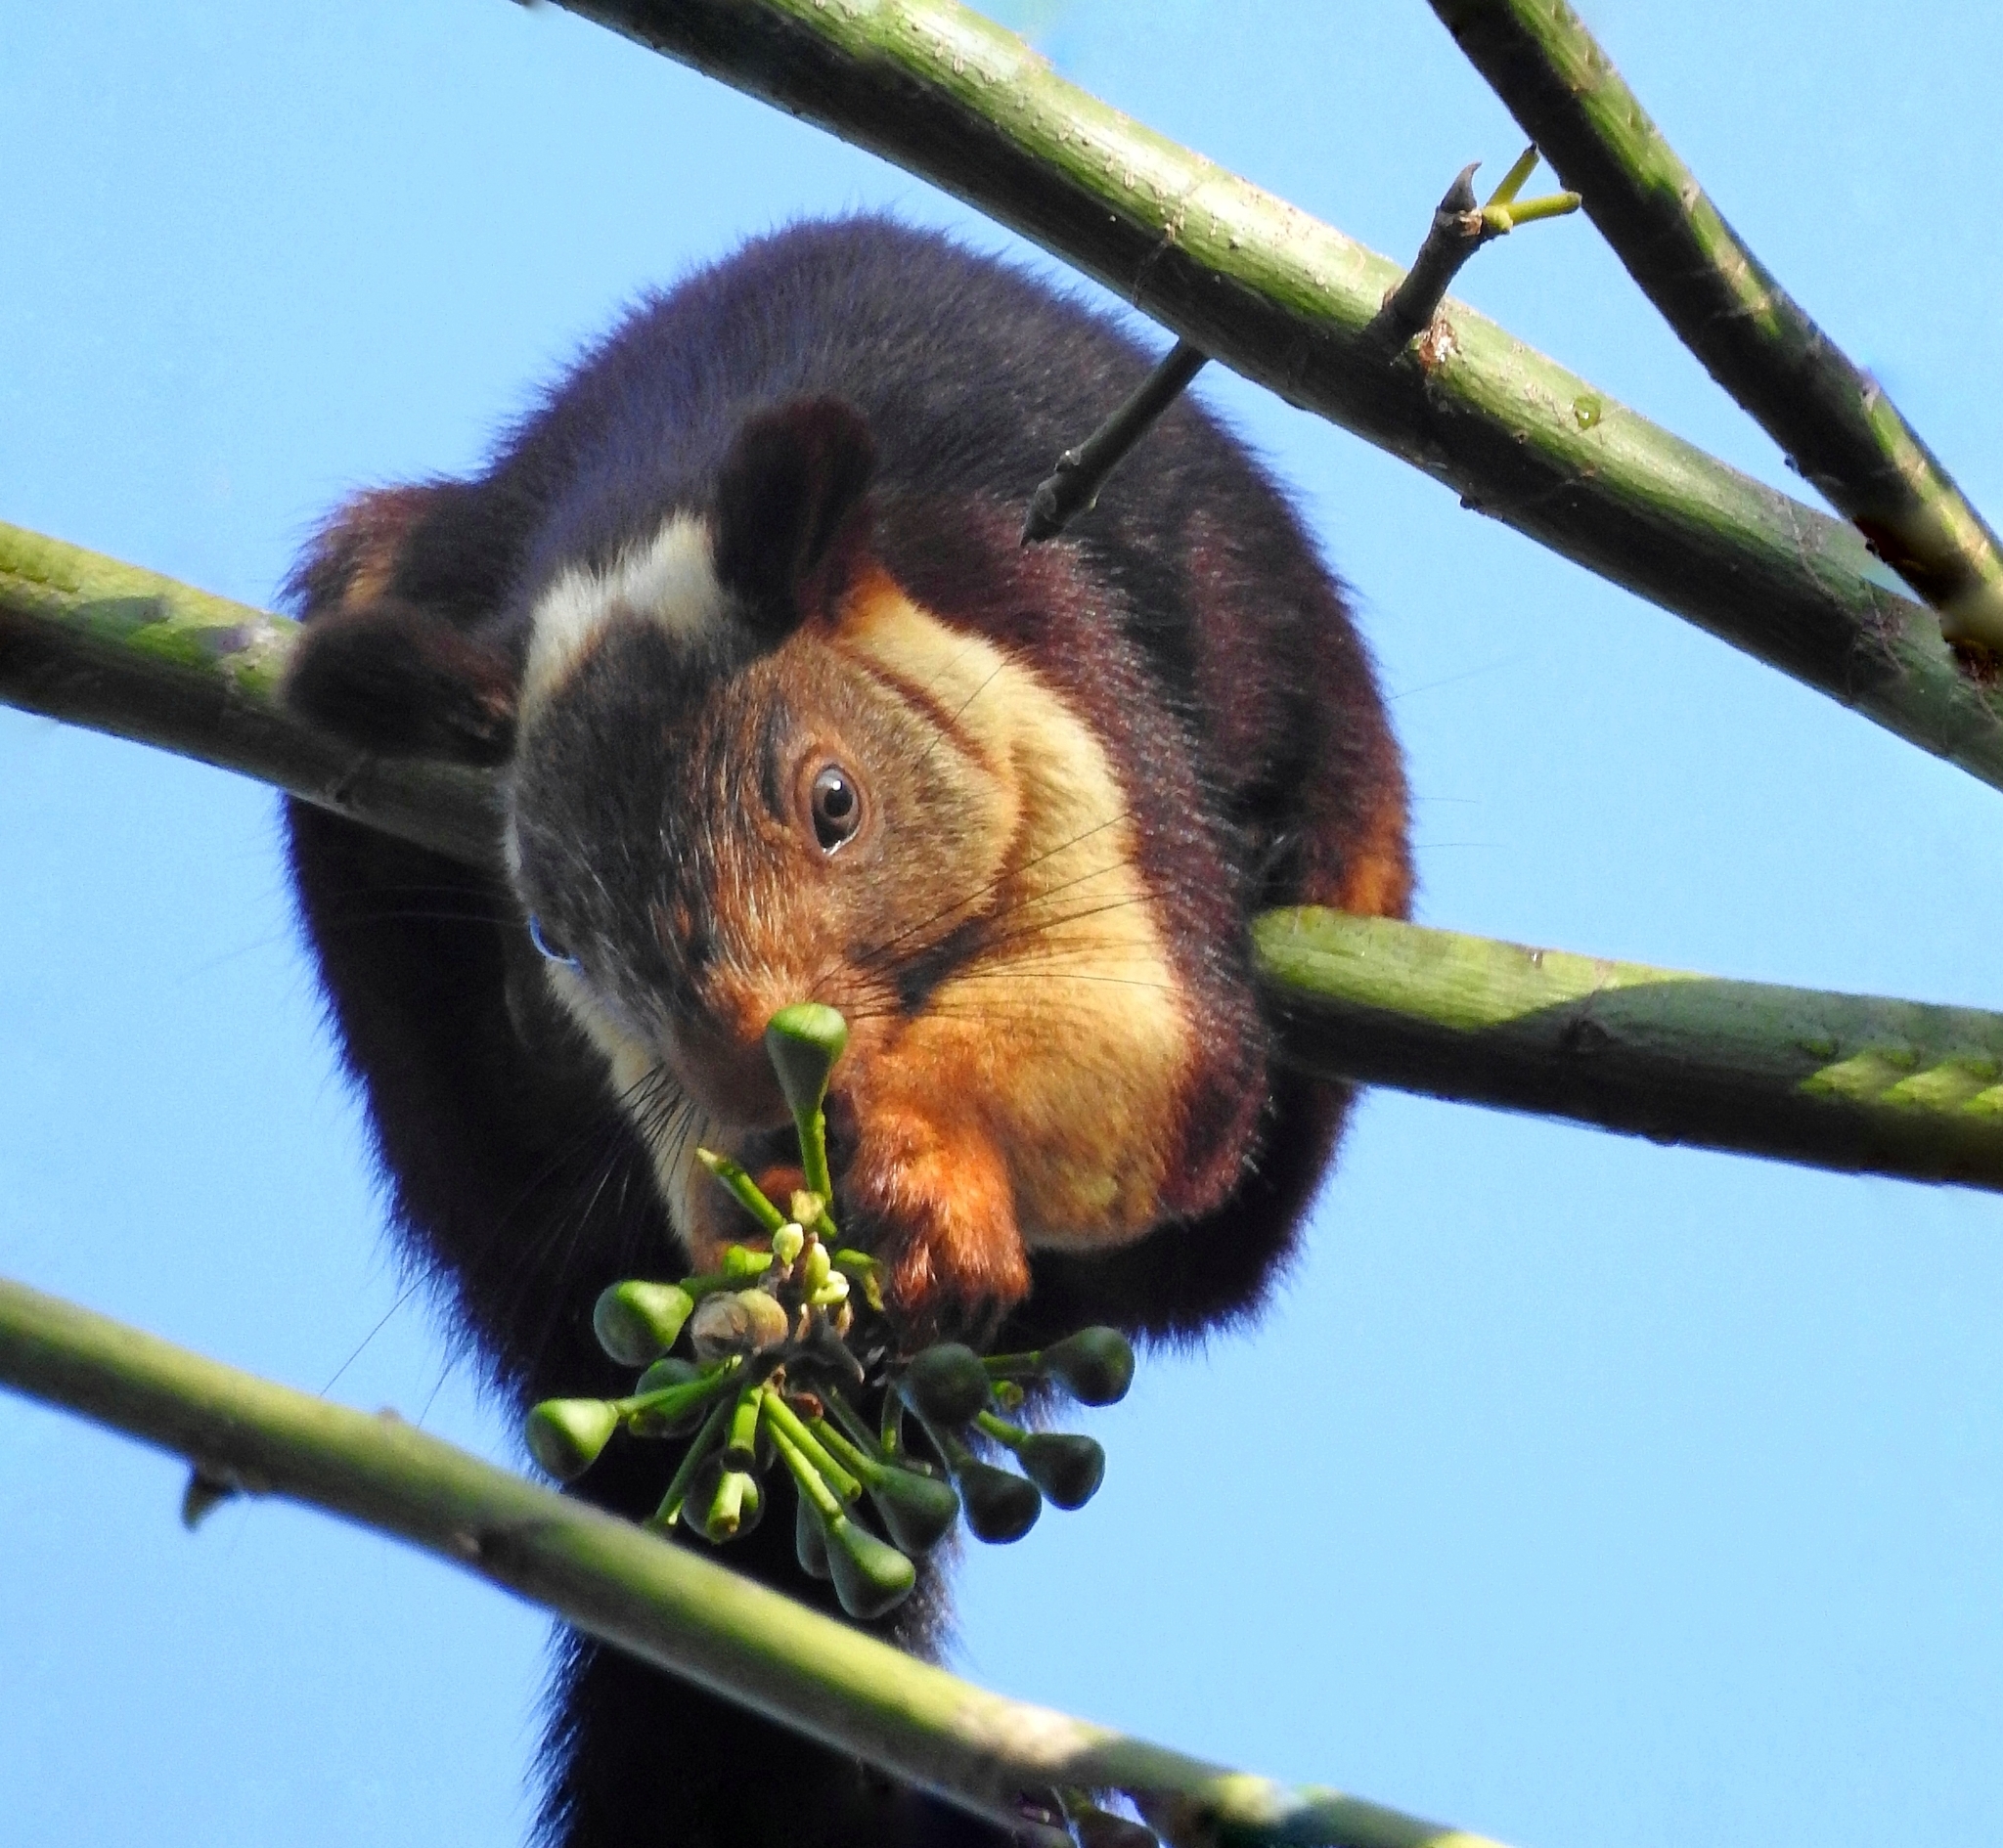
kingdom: Animalia
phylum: Chordata
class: Mammalia
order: Rodentia
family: Sciuridae
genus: Ratufa
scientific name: Ratufa indica
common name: Indian giant squirrel
